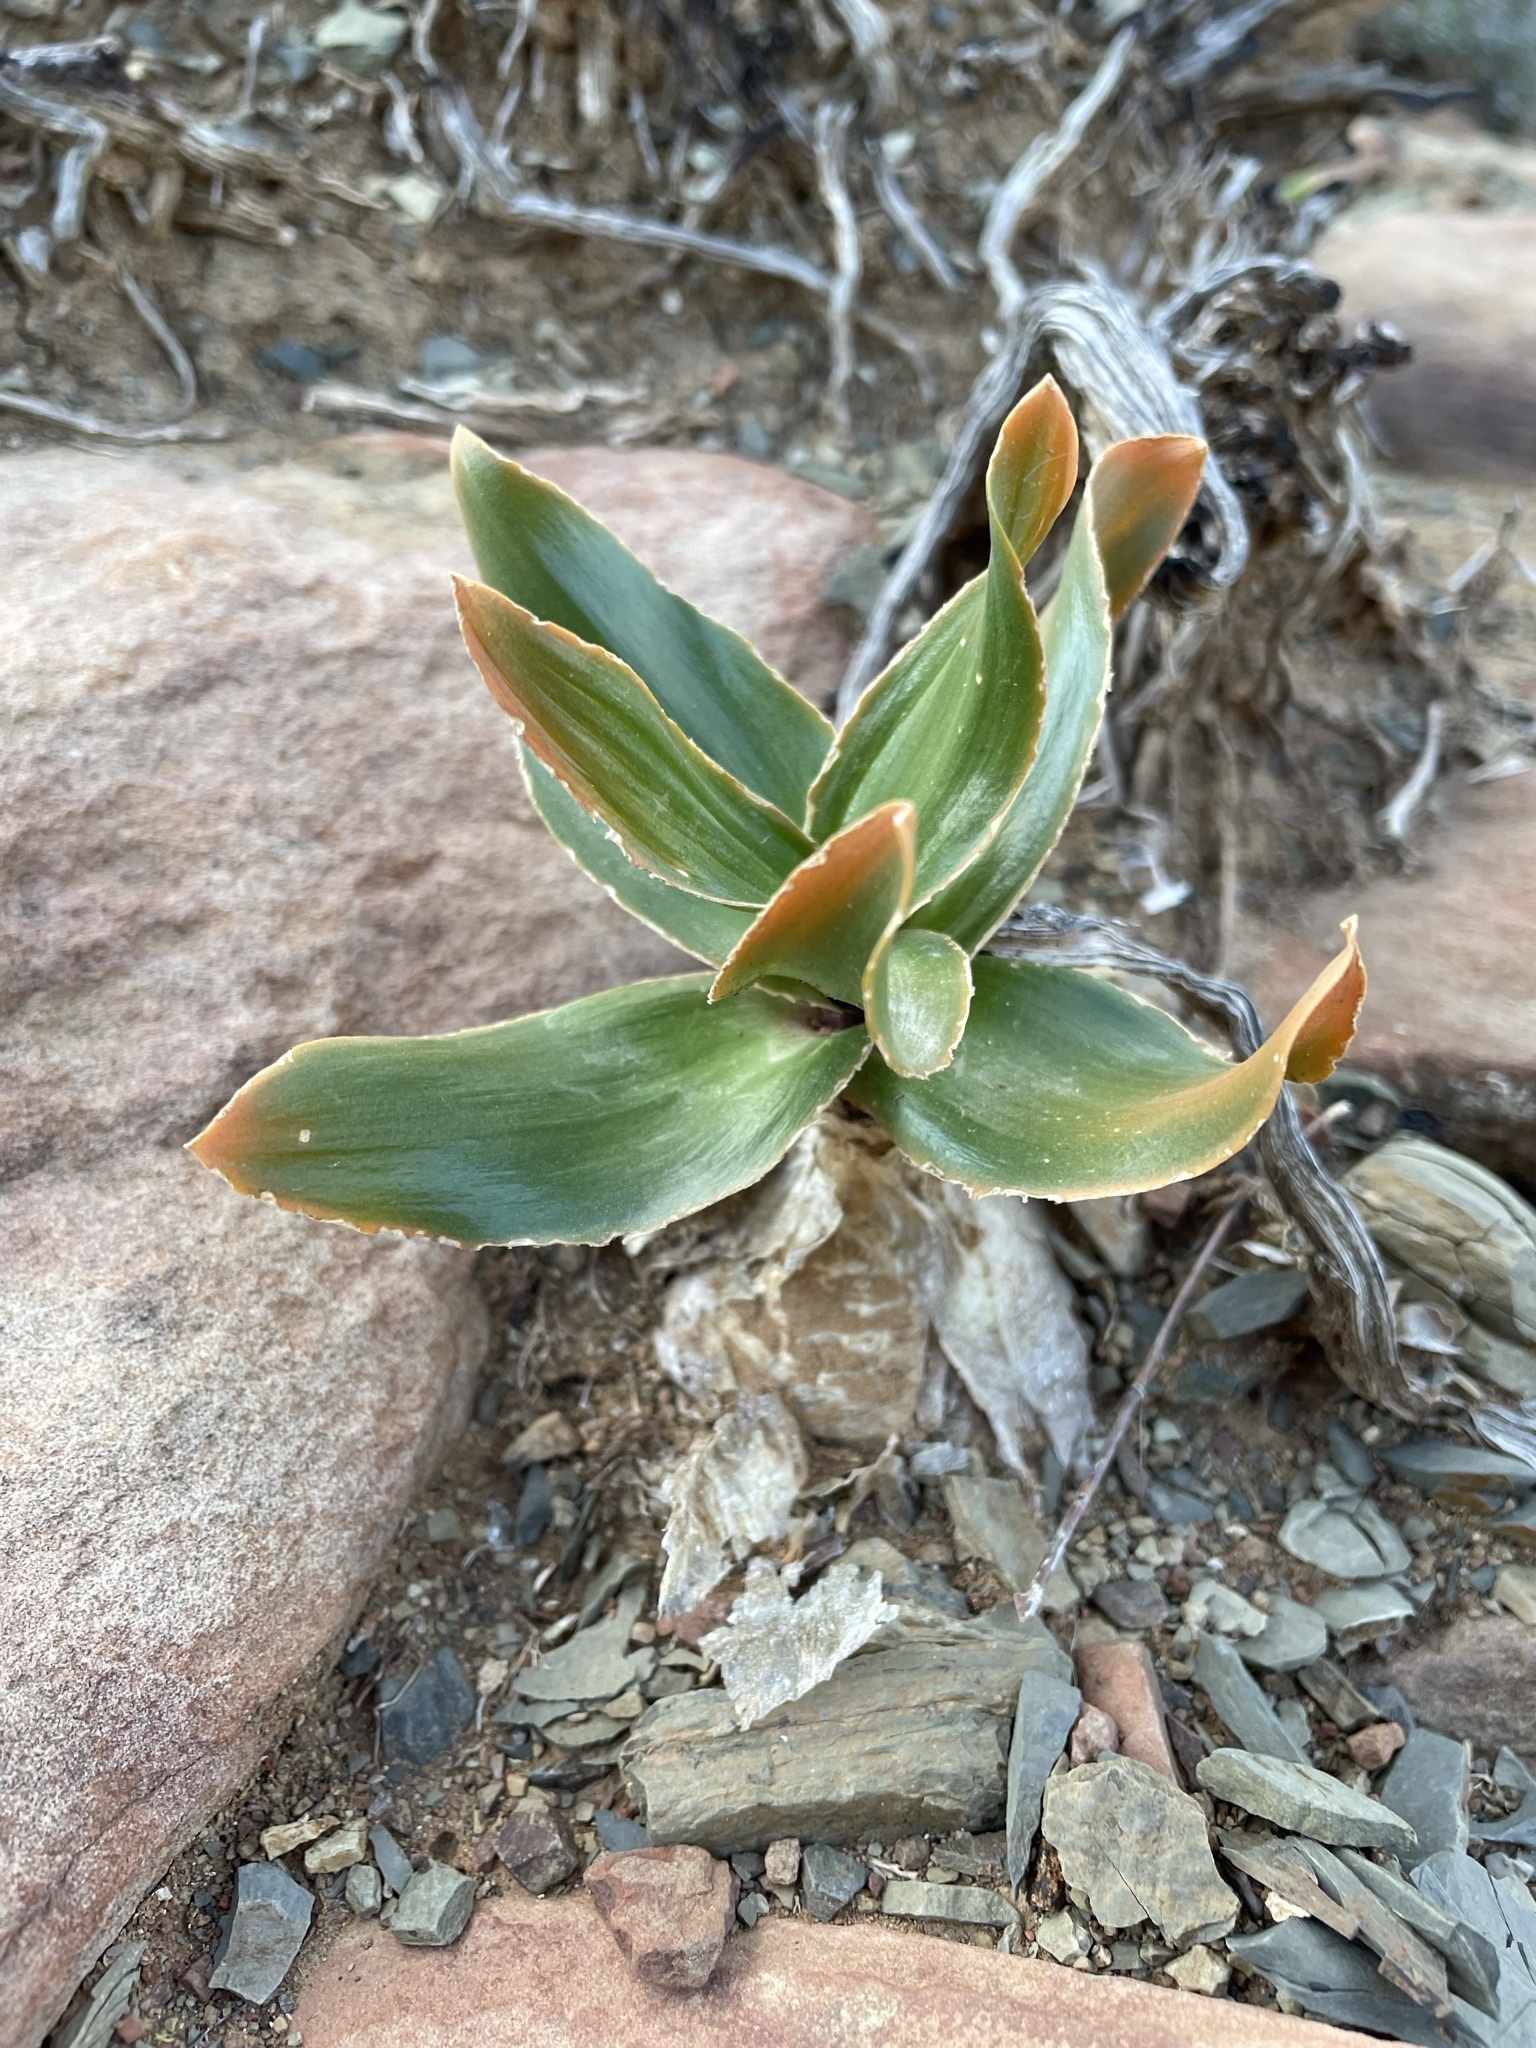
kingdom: Plantae
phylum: Tracheophyta
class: Liliopsida
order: Asparagales
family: Asparagaceae
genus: Fusifilum
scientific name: Fusifilum physodes
